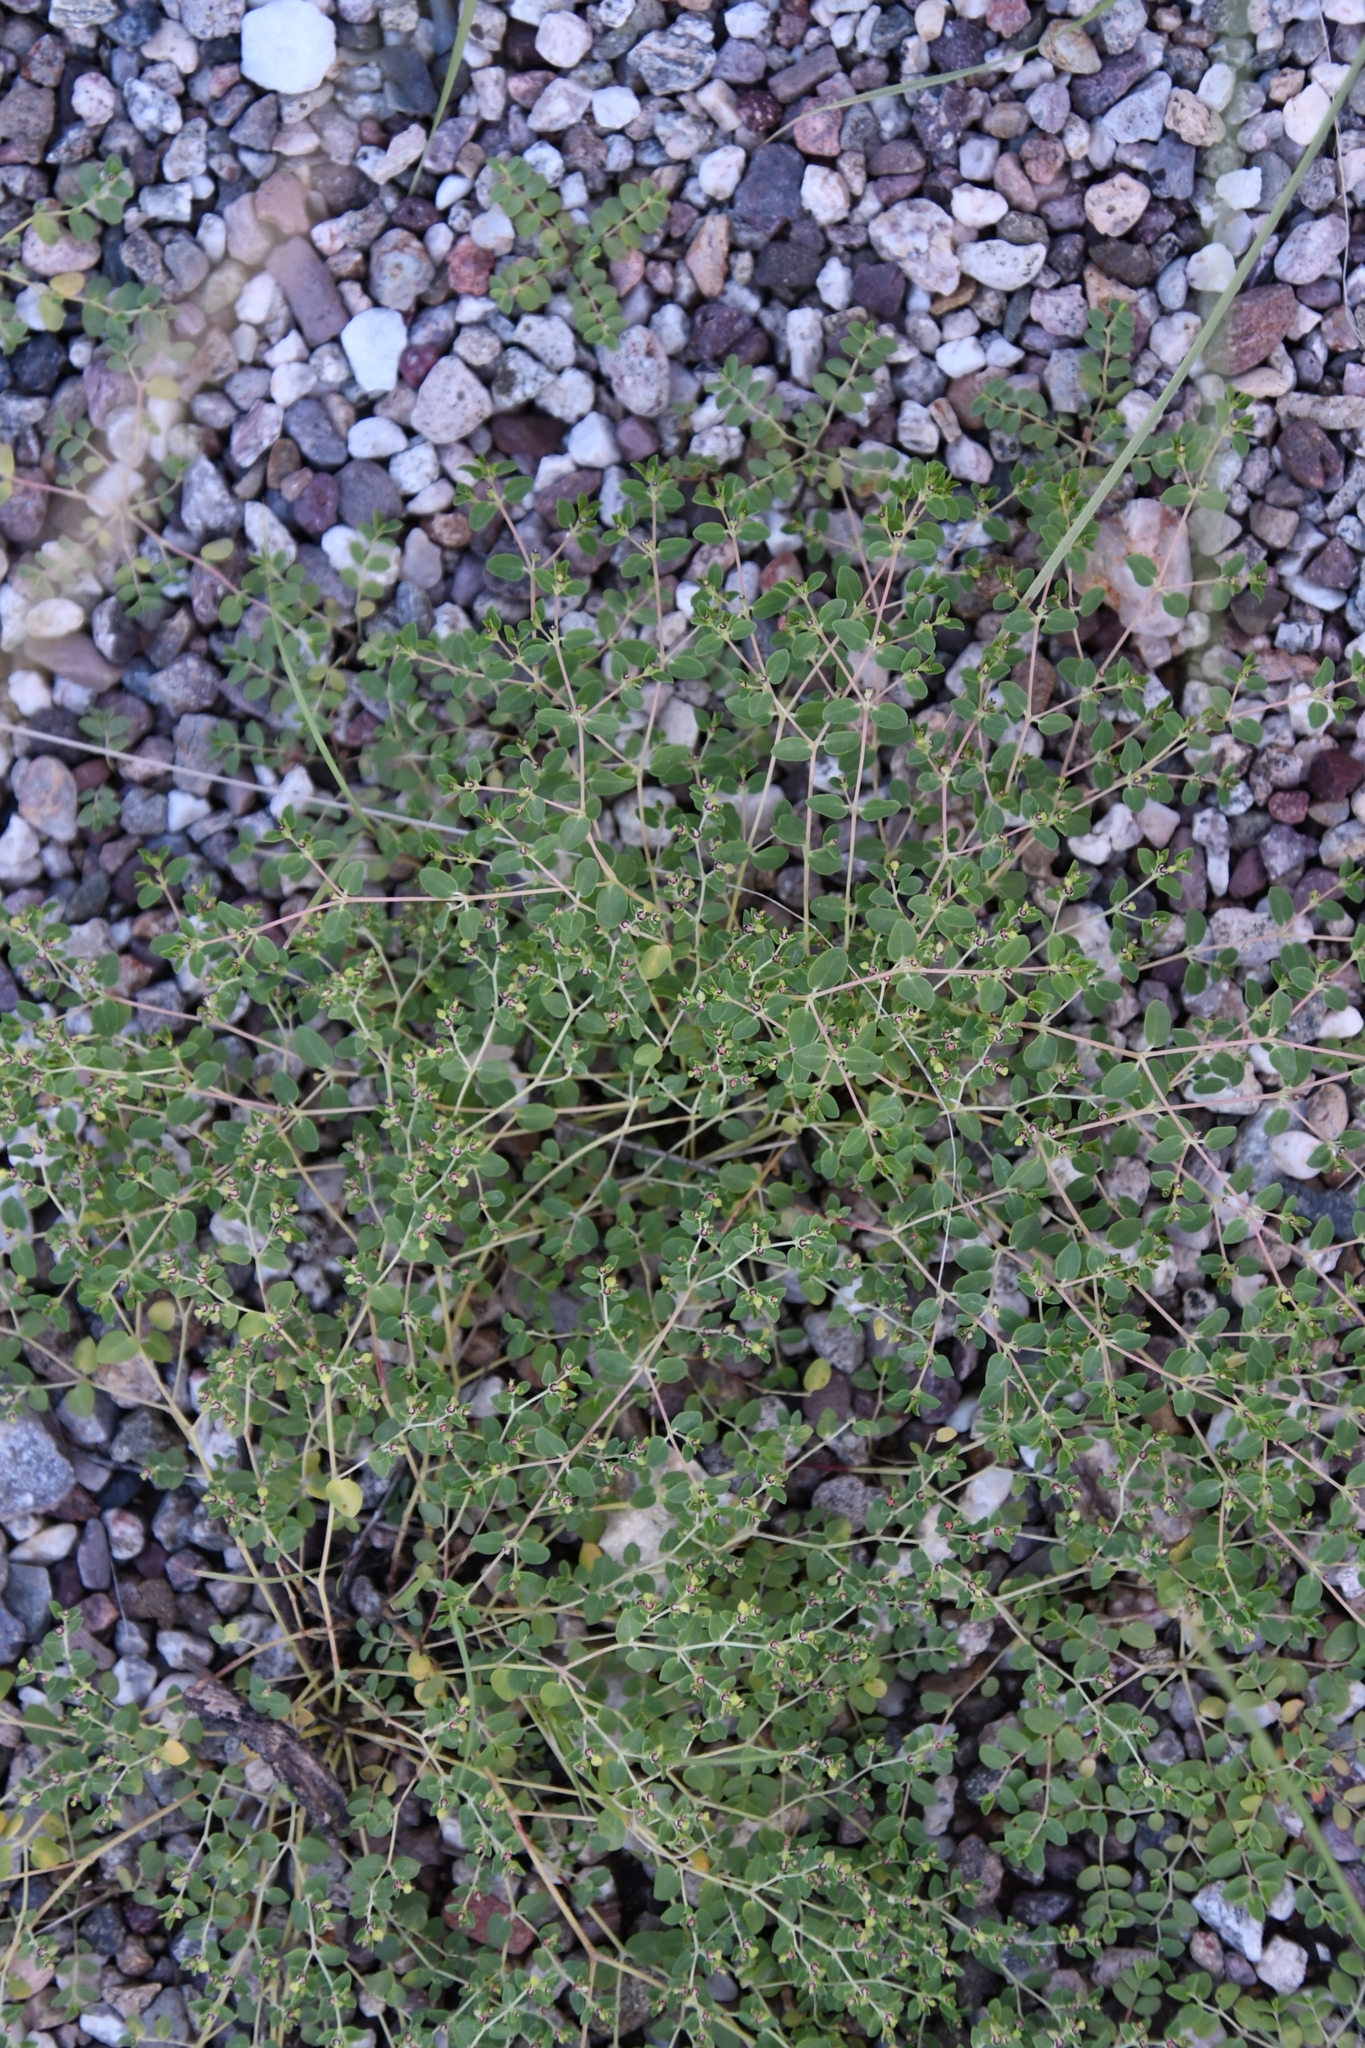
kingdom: Plantae
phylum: Tracheophyta
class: Magnoliopsida
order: Malpighiales
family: Euphorbiaceae
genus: Euphorbia
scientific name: Euphorbia polycarpa
